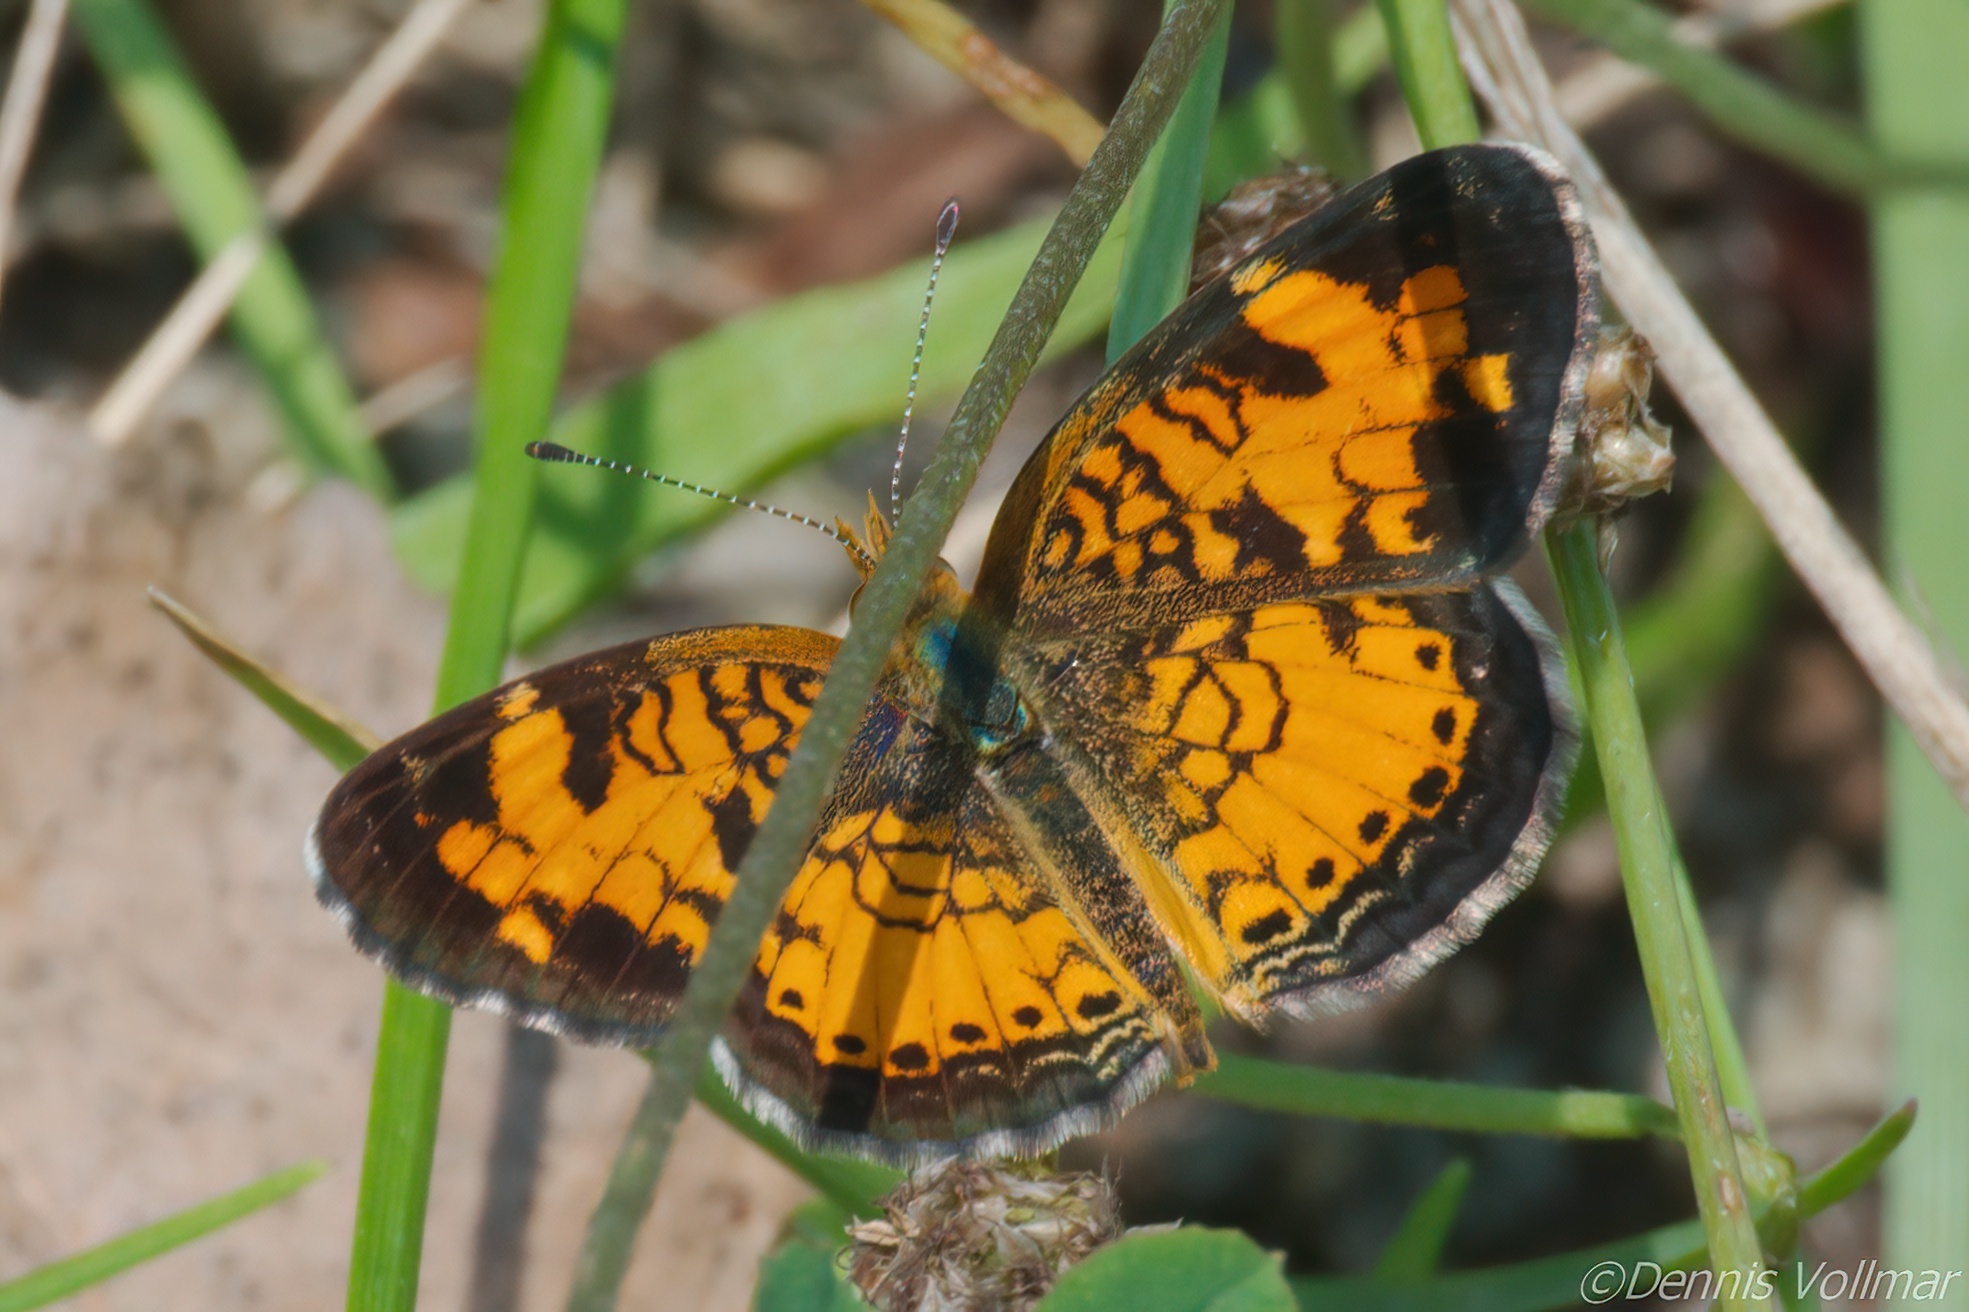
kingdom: Animalia
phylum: Arthropoda
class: Insecta
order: Lepidoptera
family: Nymphalidae
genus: Phyciodes
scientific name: Phyciodes tharos
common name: Pearl crescent
